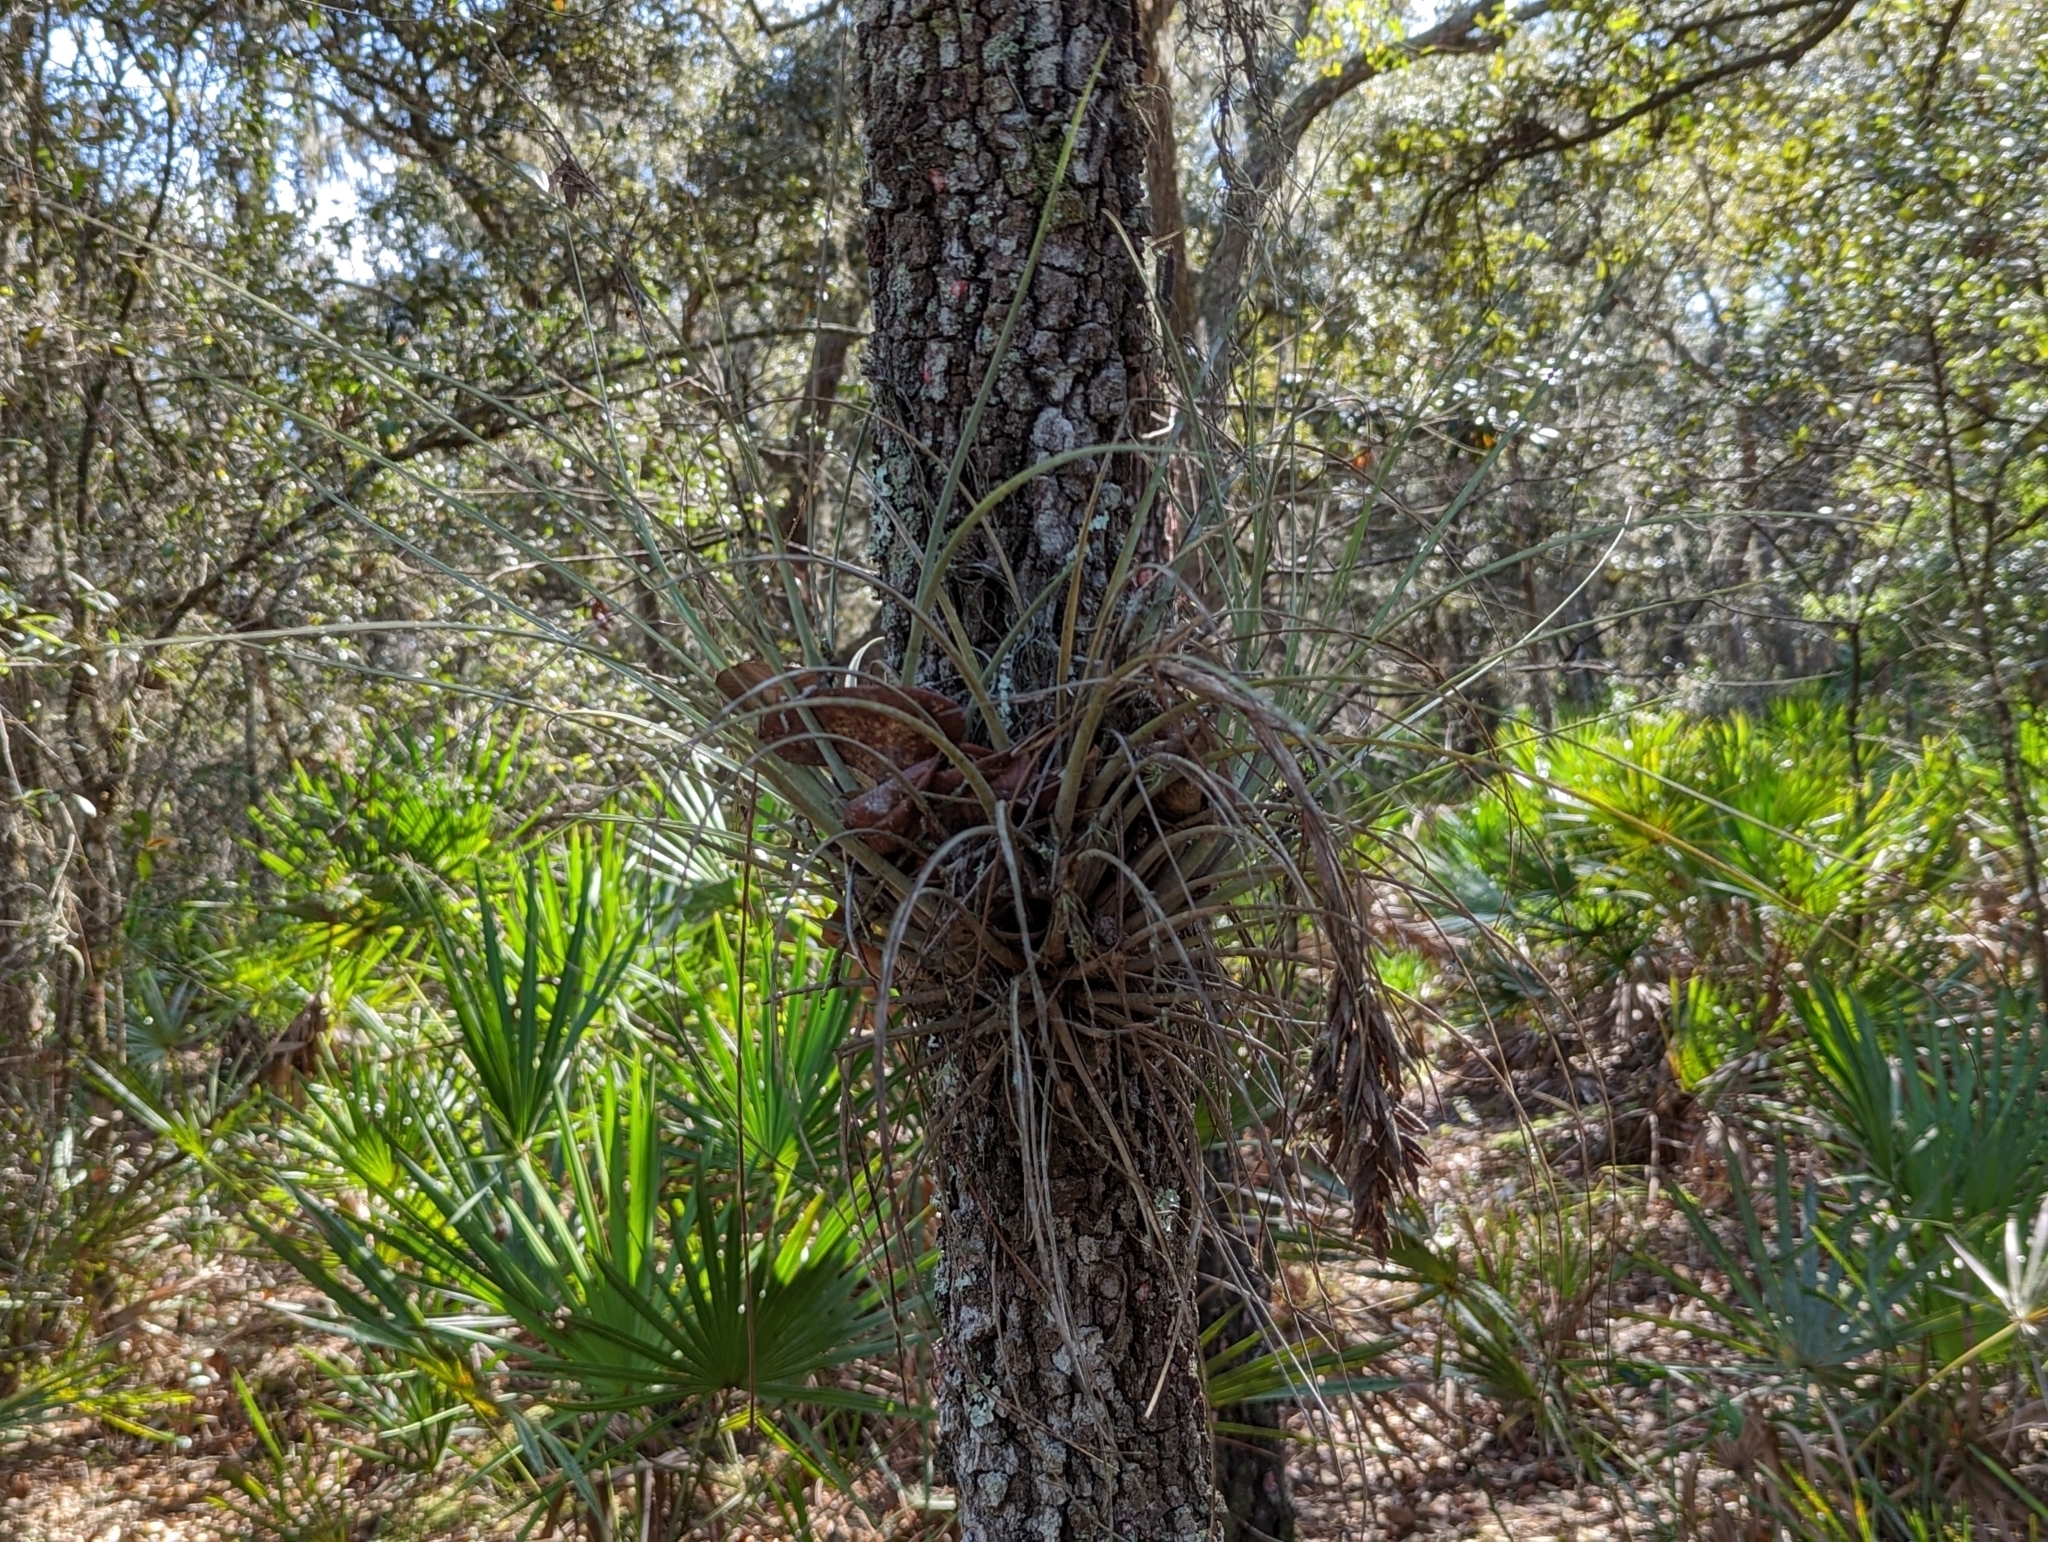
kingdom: Plantae
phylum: Tracheophyta
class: Liliopsida
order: Poales
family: Bromeliaceae
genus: Tillandsia
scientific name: Tillandsia simulata
